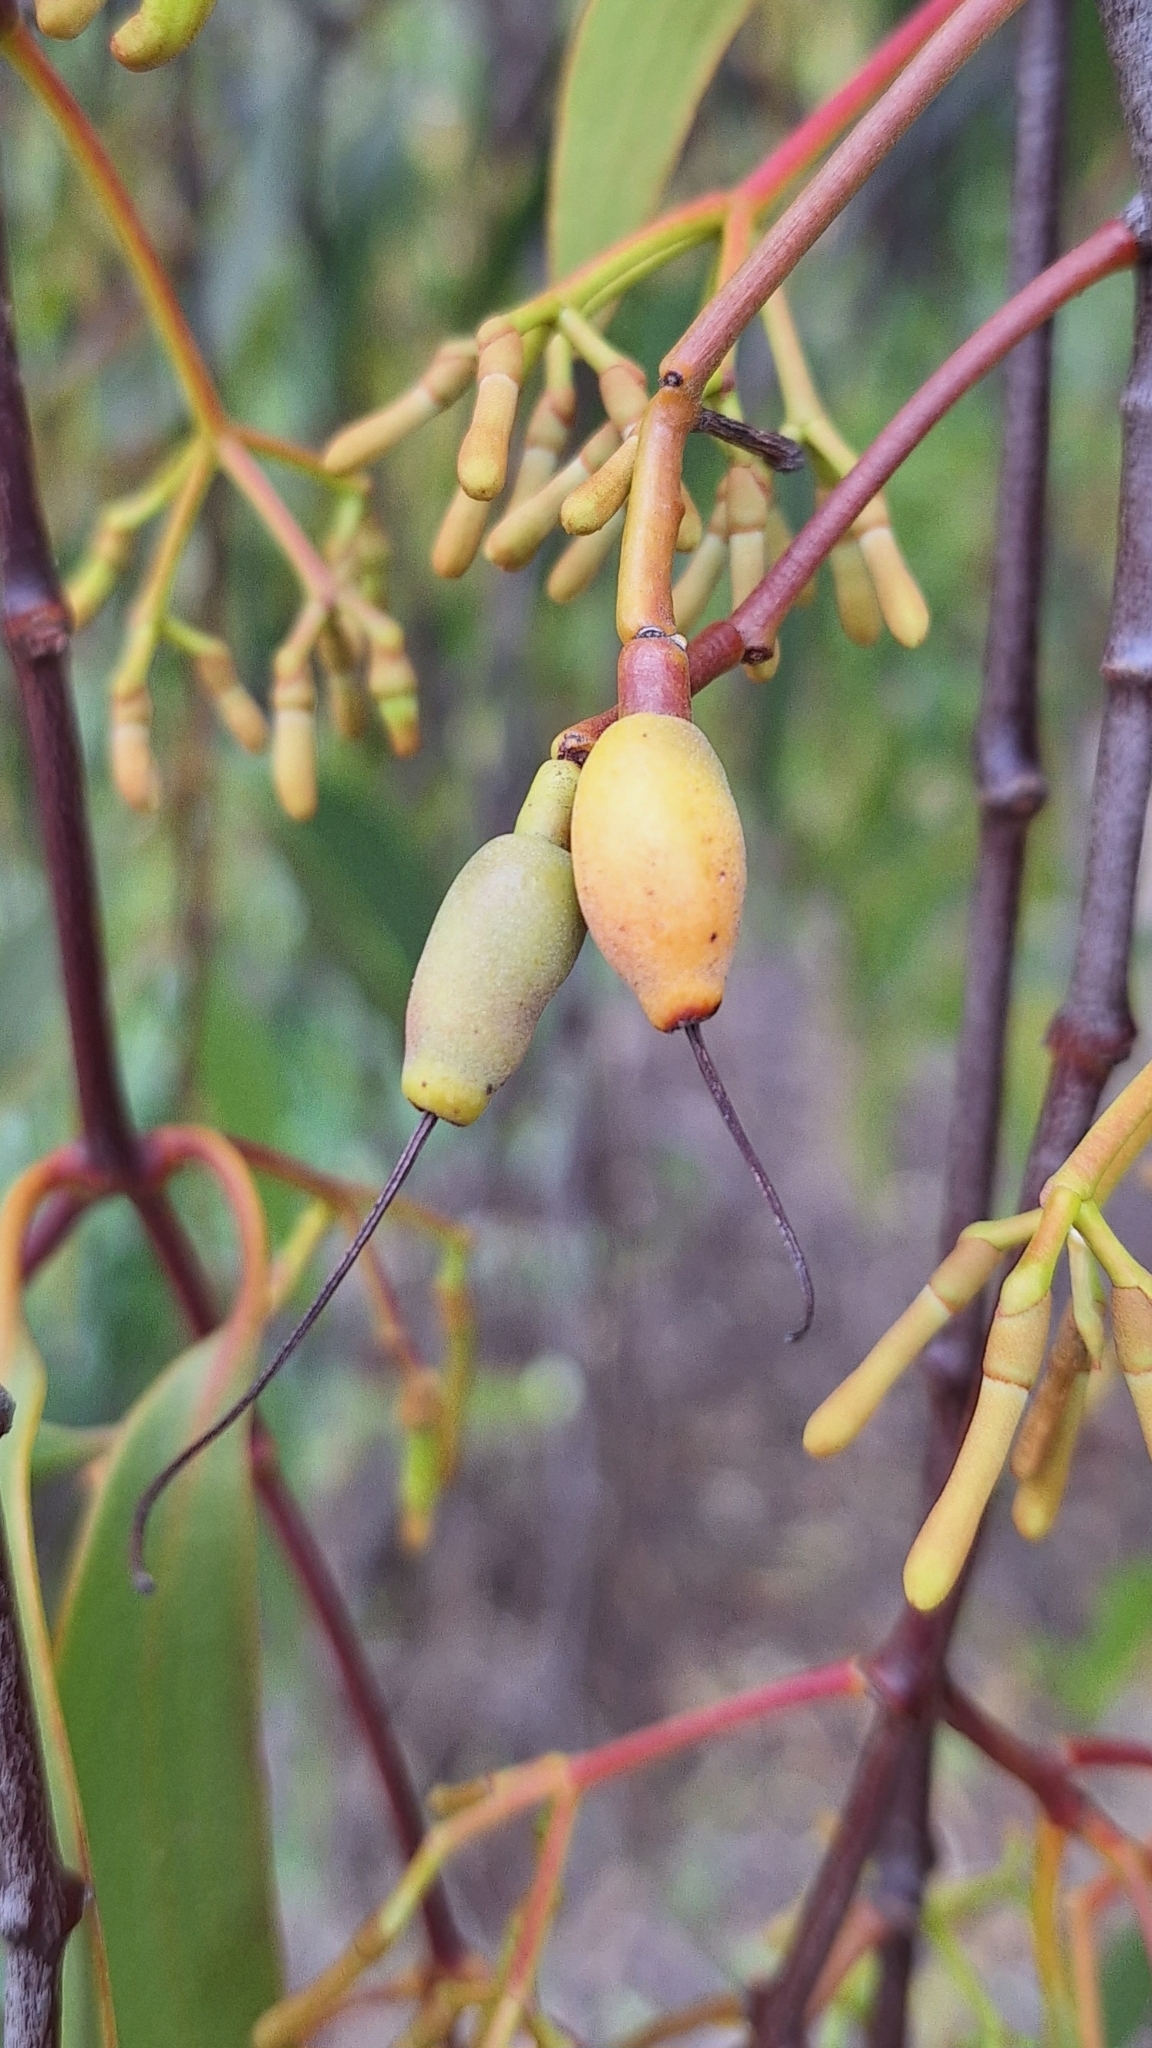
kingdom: Plantae
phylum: Tracheophyta
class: Magnoliopsida
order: Santalales
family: Loranthaceae
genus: Amyema
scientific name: Amyema miquelii
